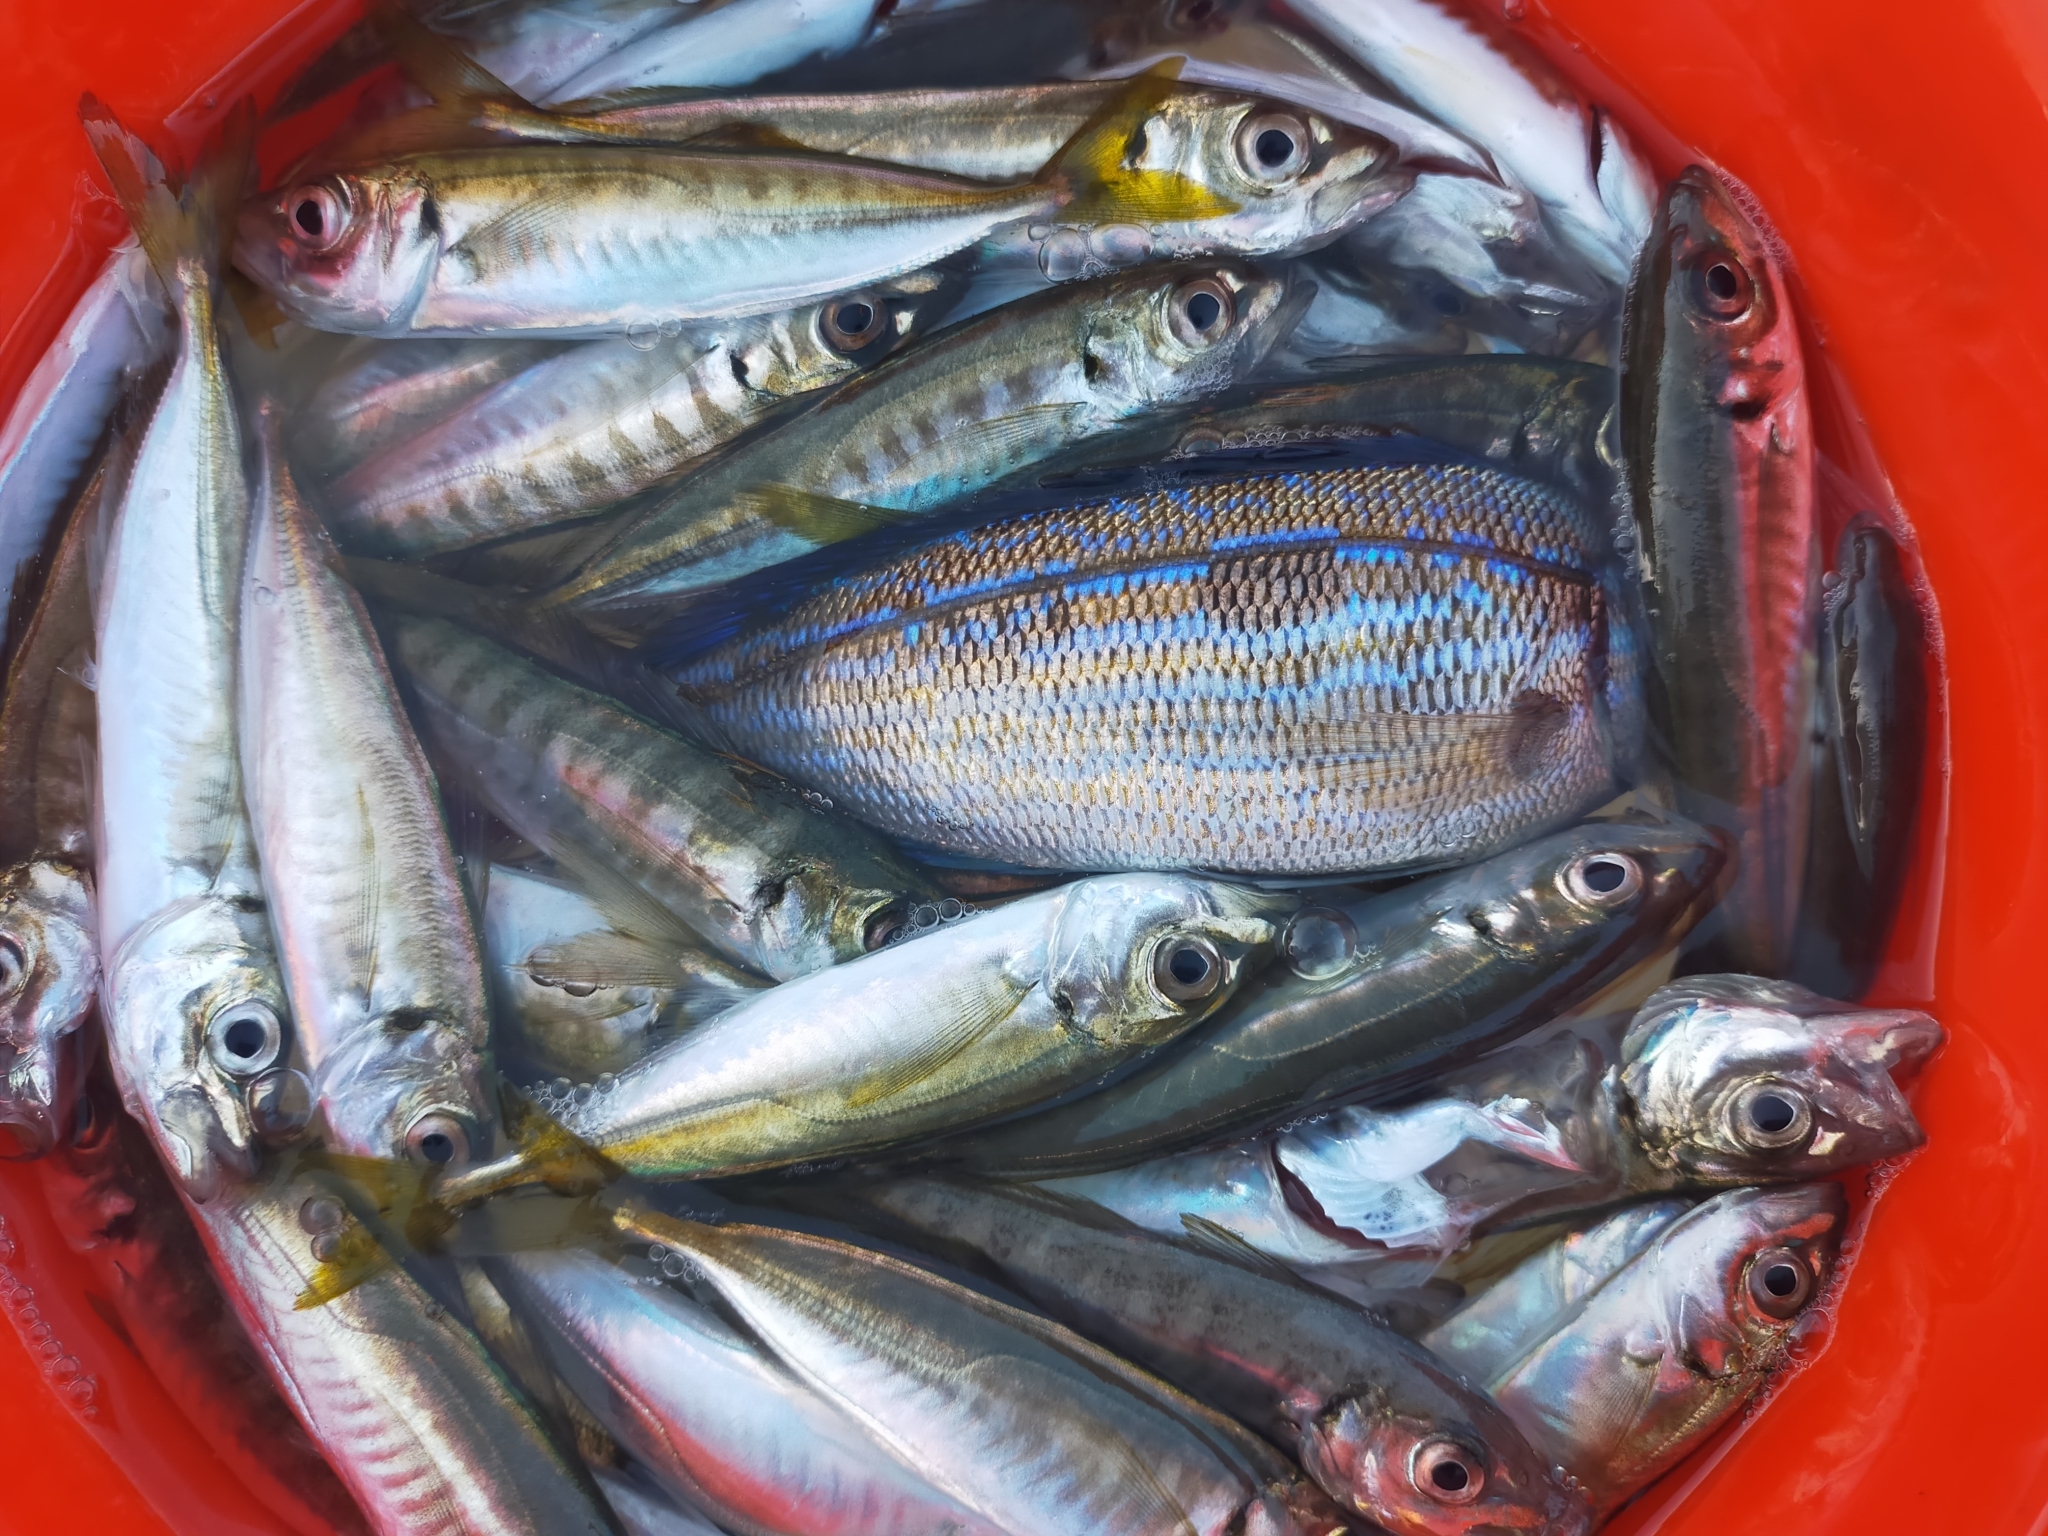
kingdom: Animalia
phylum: Chordata
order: Perciformes
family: Sparidae
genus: Spicara
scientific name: Spicara
